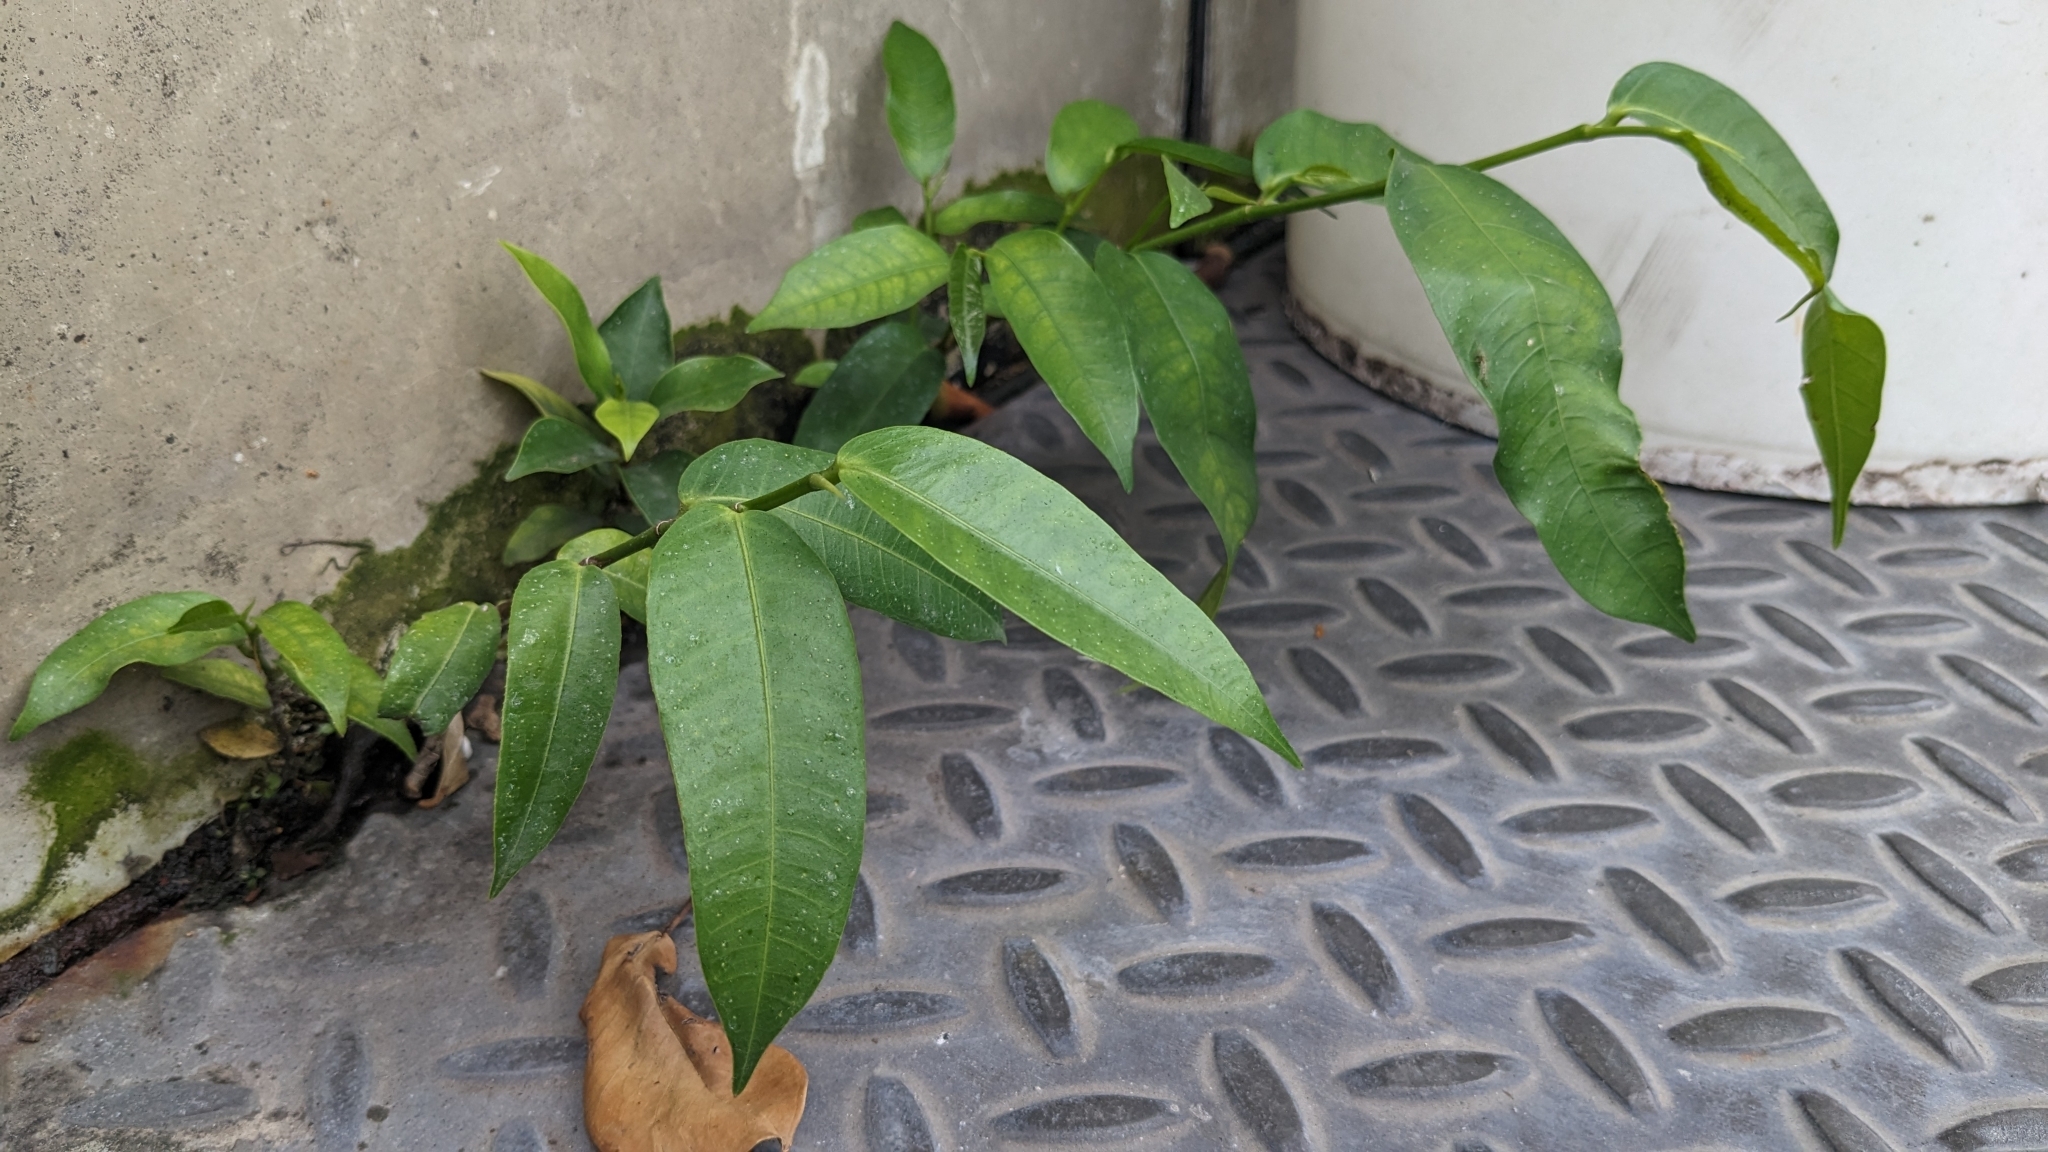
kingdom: Plantae
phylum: Tracheophyta
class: Magnoliopsida
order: Rosales
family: Moraceae
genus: Ficus
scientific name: Ficus virgata
